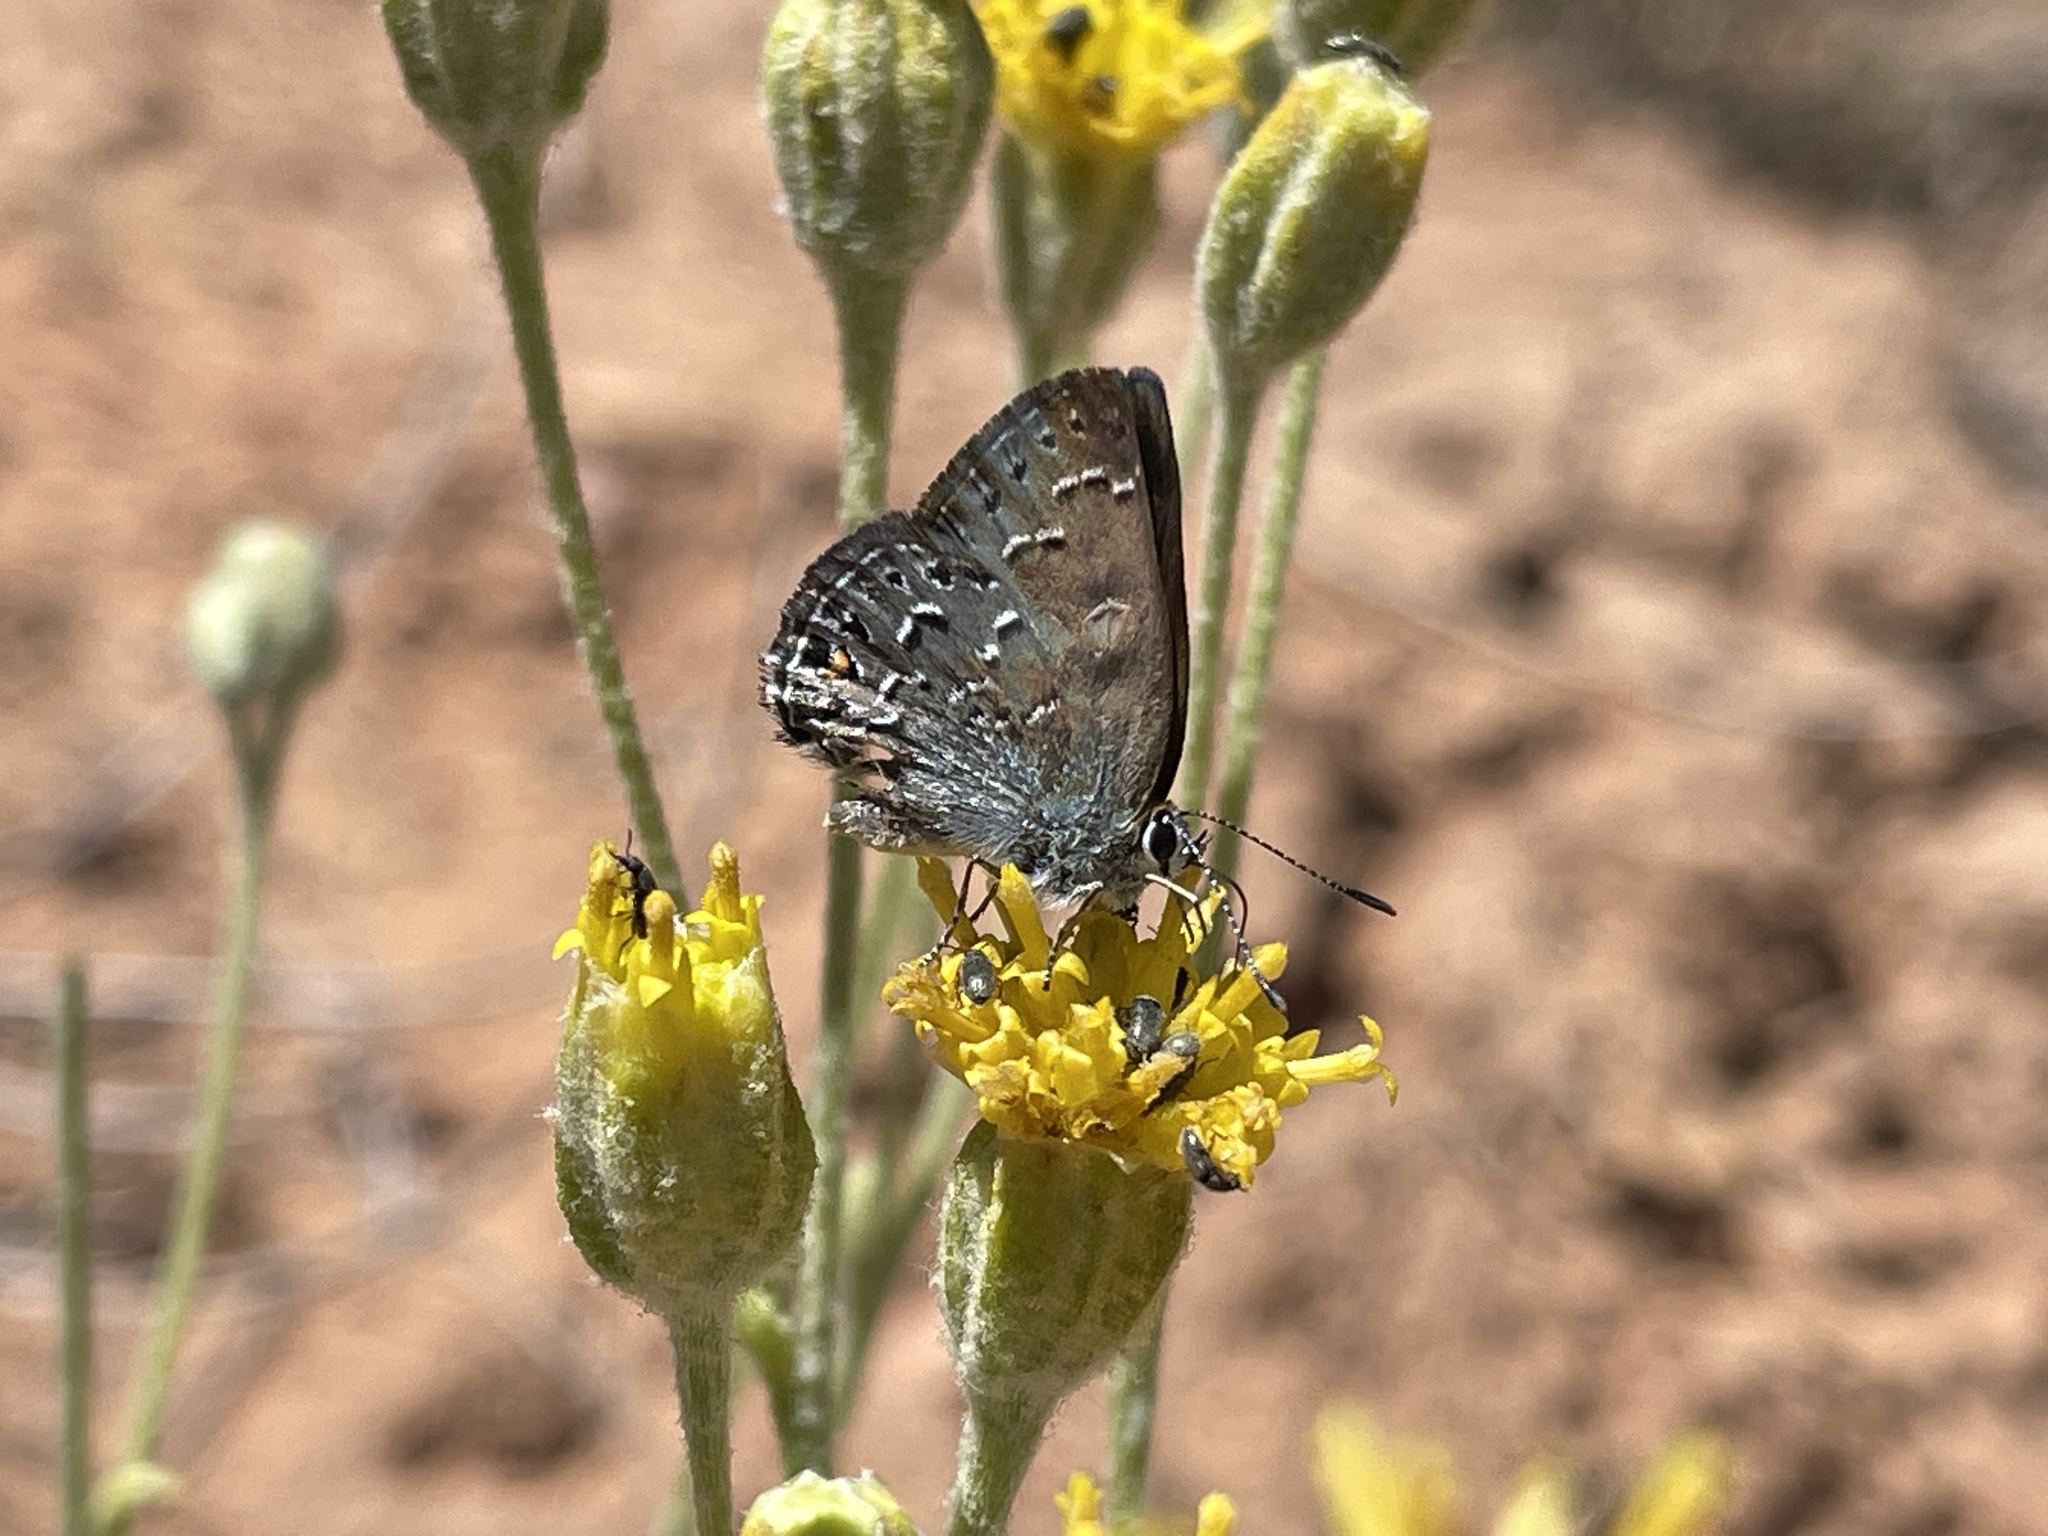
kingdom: Animalia
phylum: Arthropoda
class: Insecta
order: Lepidoptera
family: Lycaenidae
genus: Satyrium
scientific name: Satyrium behrii
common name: Behr's hairstreak
